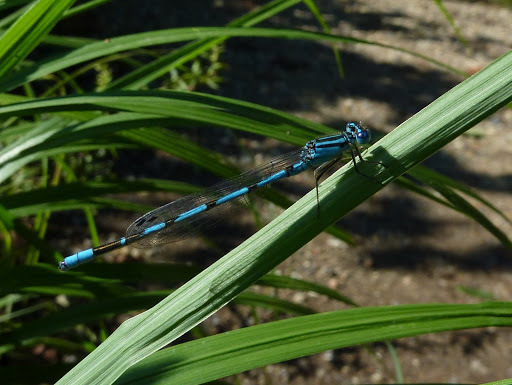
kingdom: Animalia
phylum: Arthropoda
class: Insecta
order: Odonata
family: Coenagrionidae
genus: Enallagma
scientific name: Enallagma durum
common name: Big bluet
